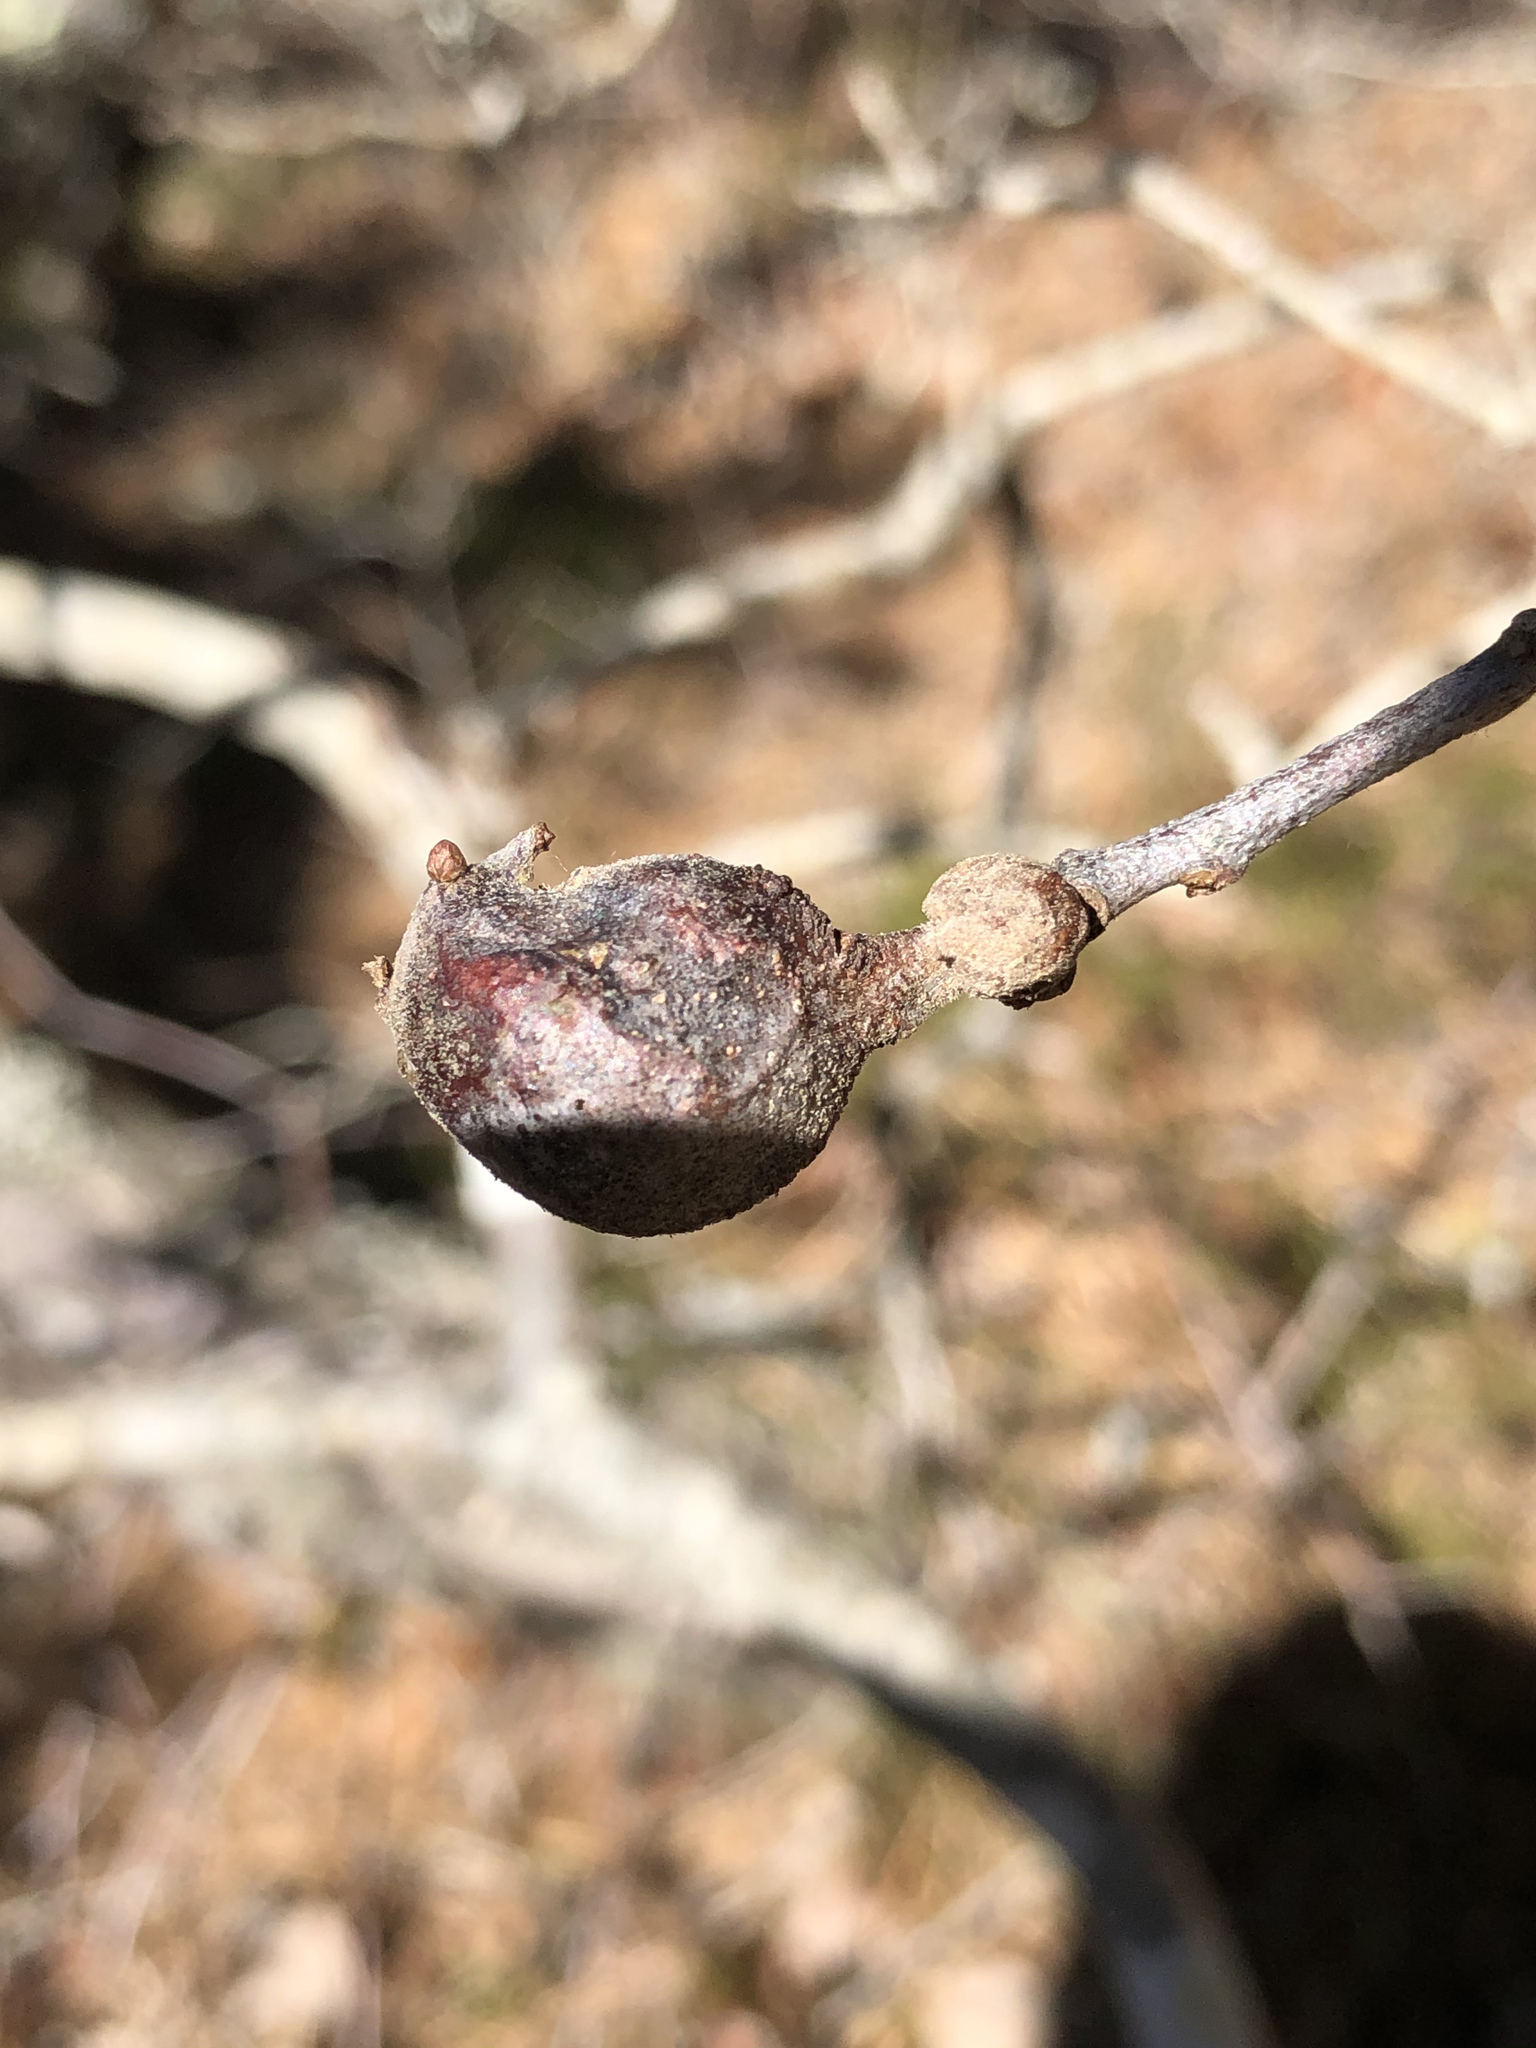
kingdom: Animalia
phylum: Arthropoda
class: Insecta
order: Hymenoptera
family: Cynipidae
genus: Zapatella
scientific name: Zapatella quercusphellos
